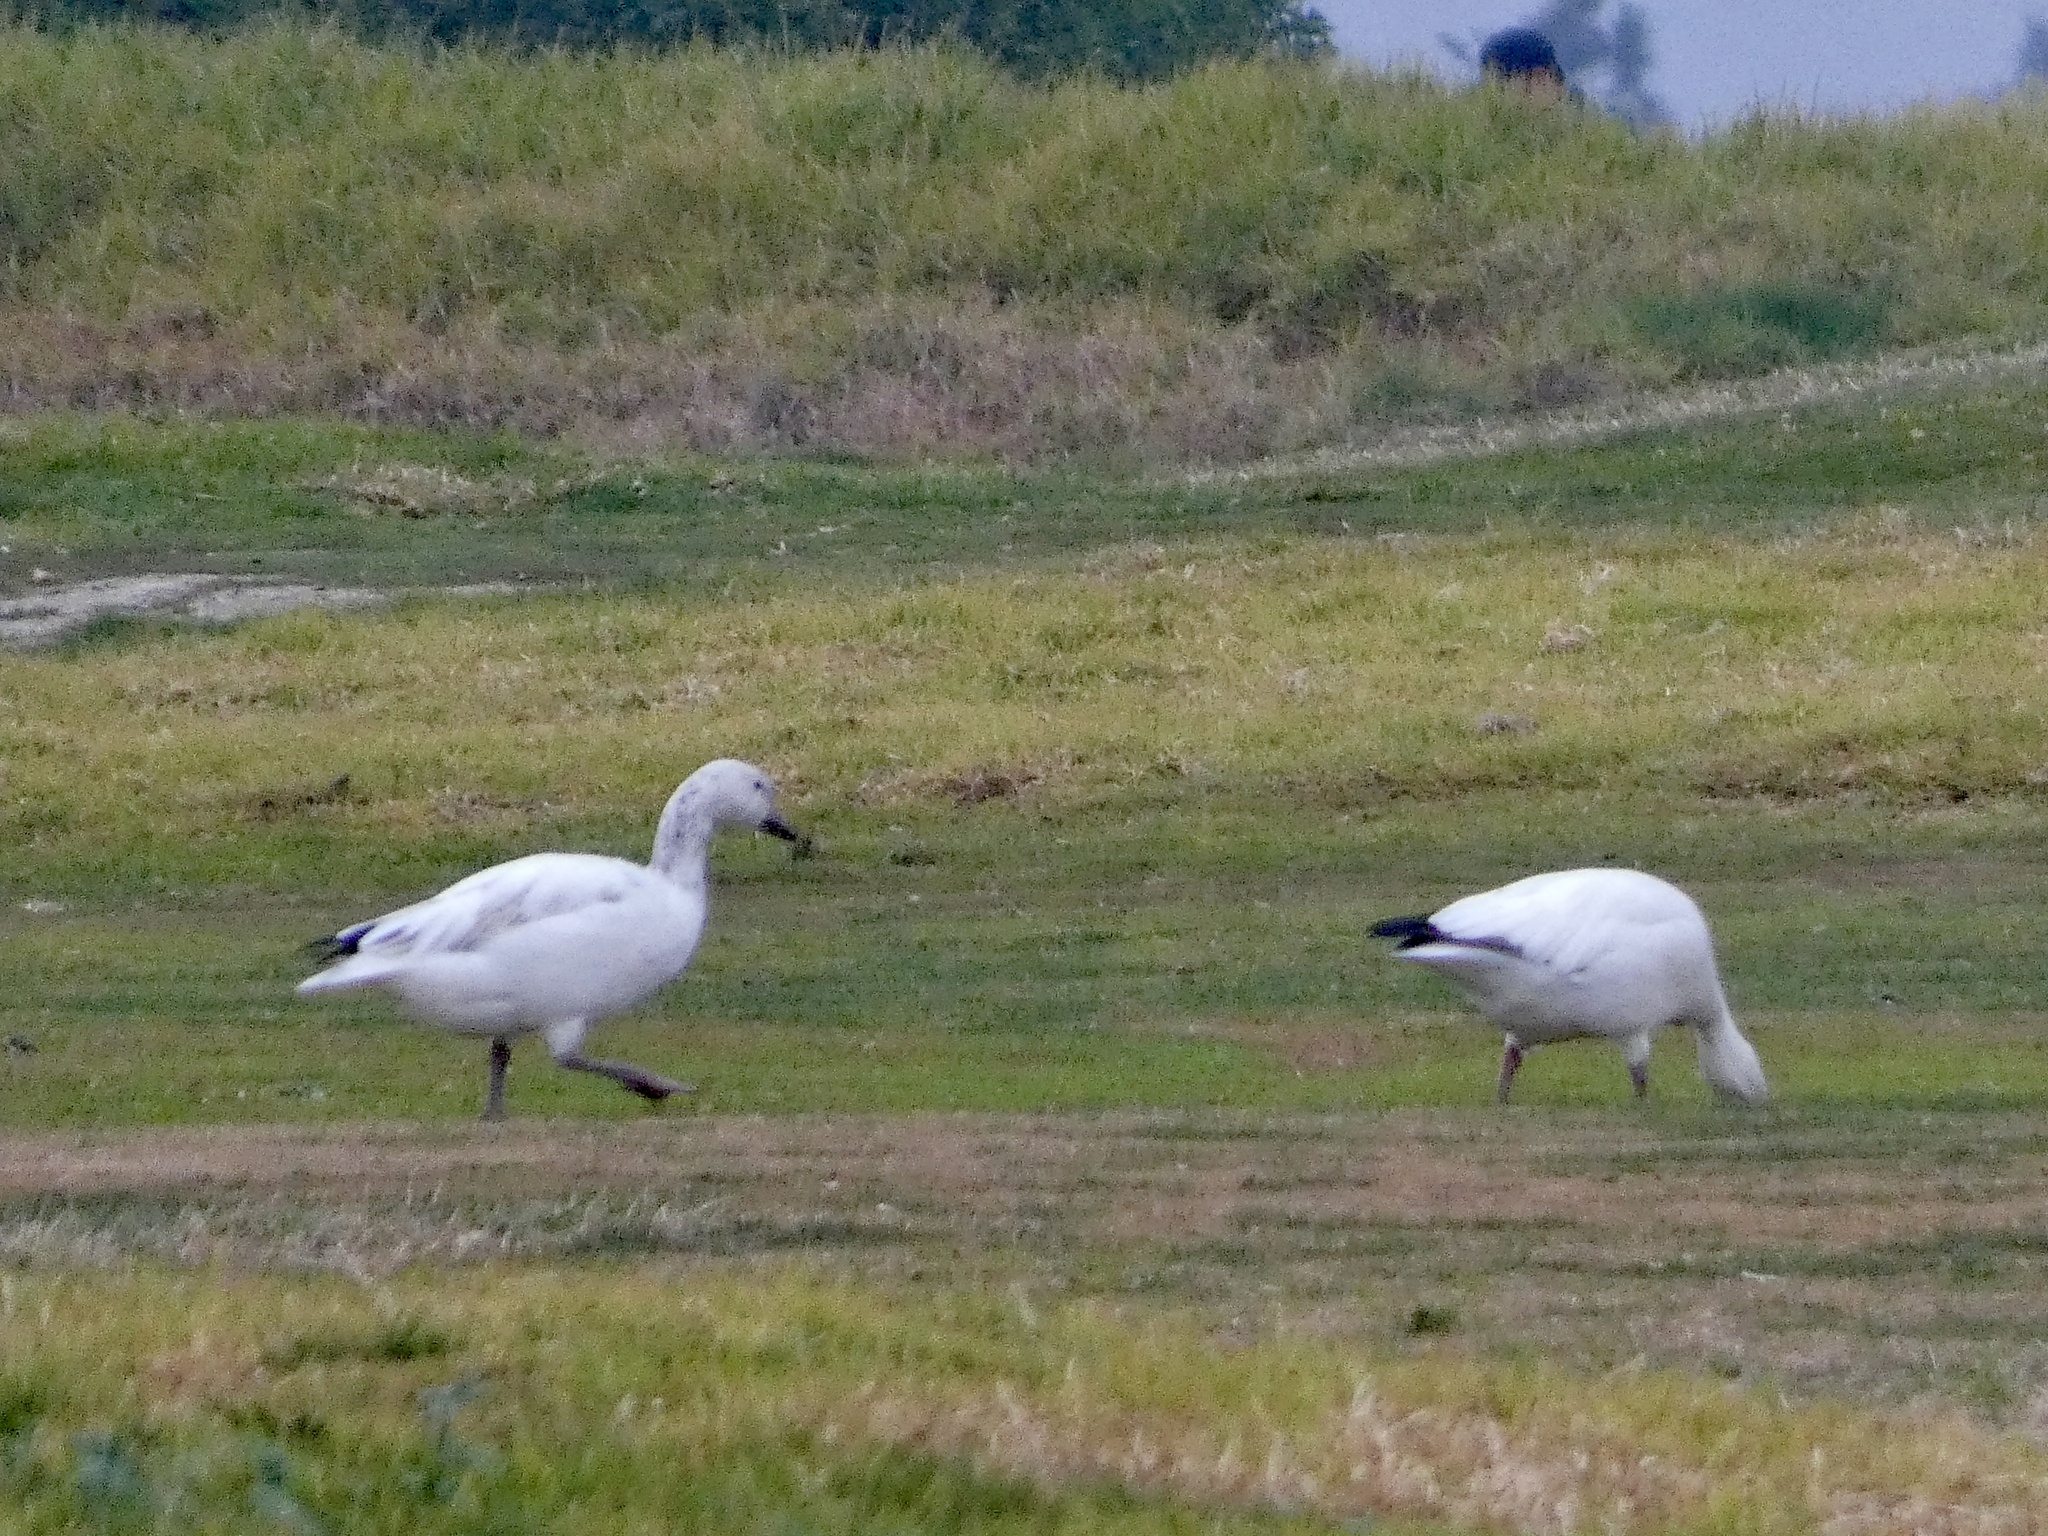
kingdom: Animalia
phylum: Chordata
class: Aves
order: Anseriformes
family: Anatidae
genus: Anser
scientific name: Anser caerulescens
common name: Snow goose
